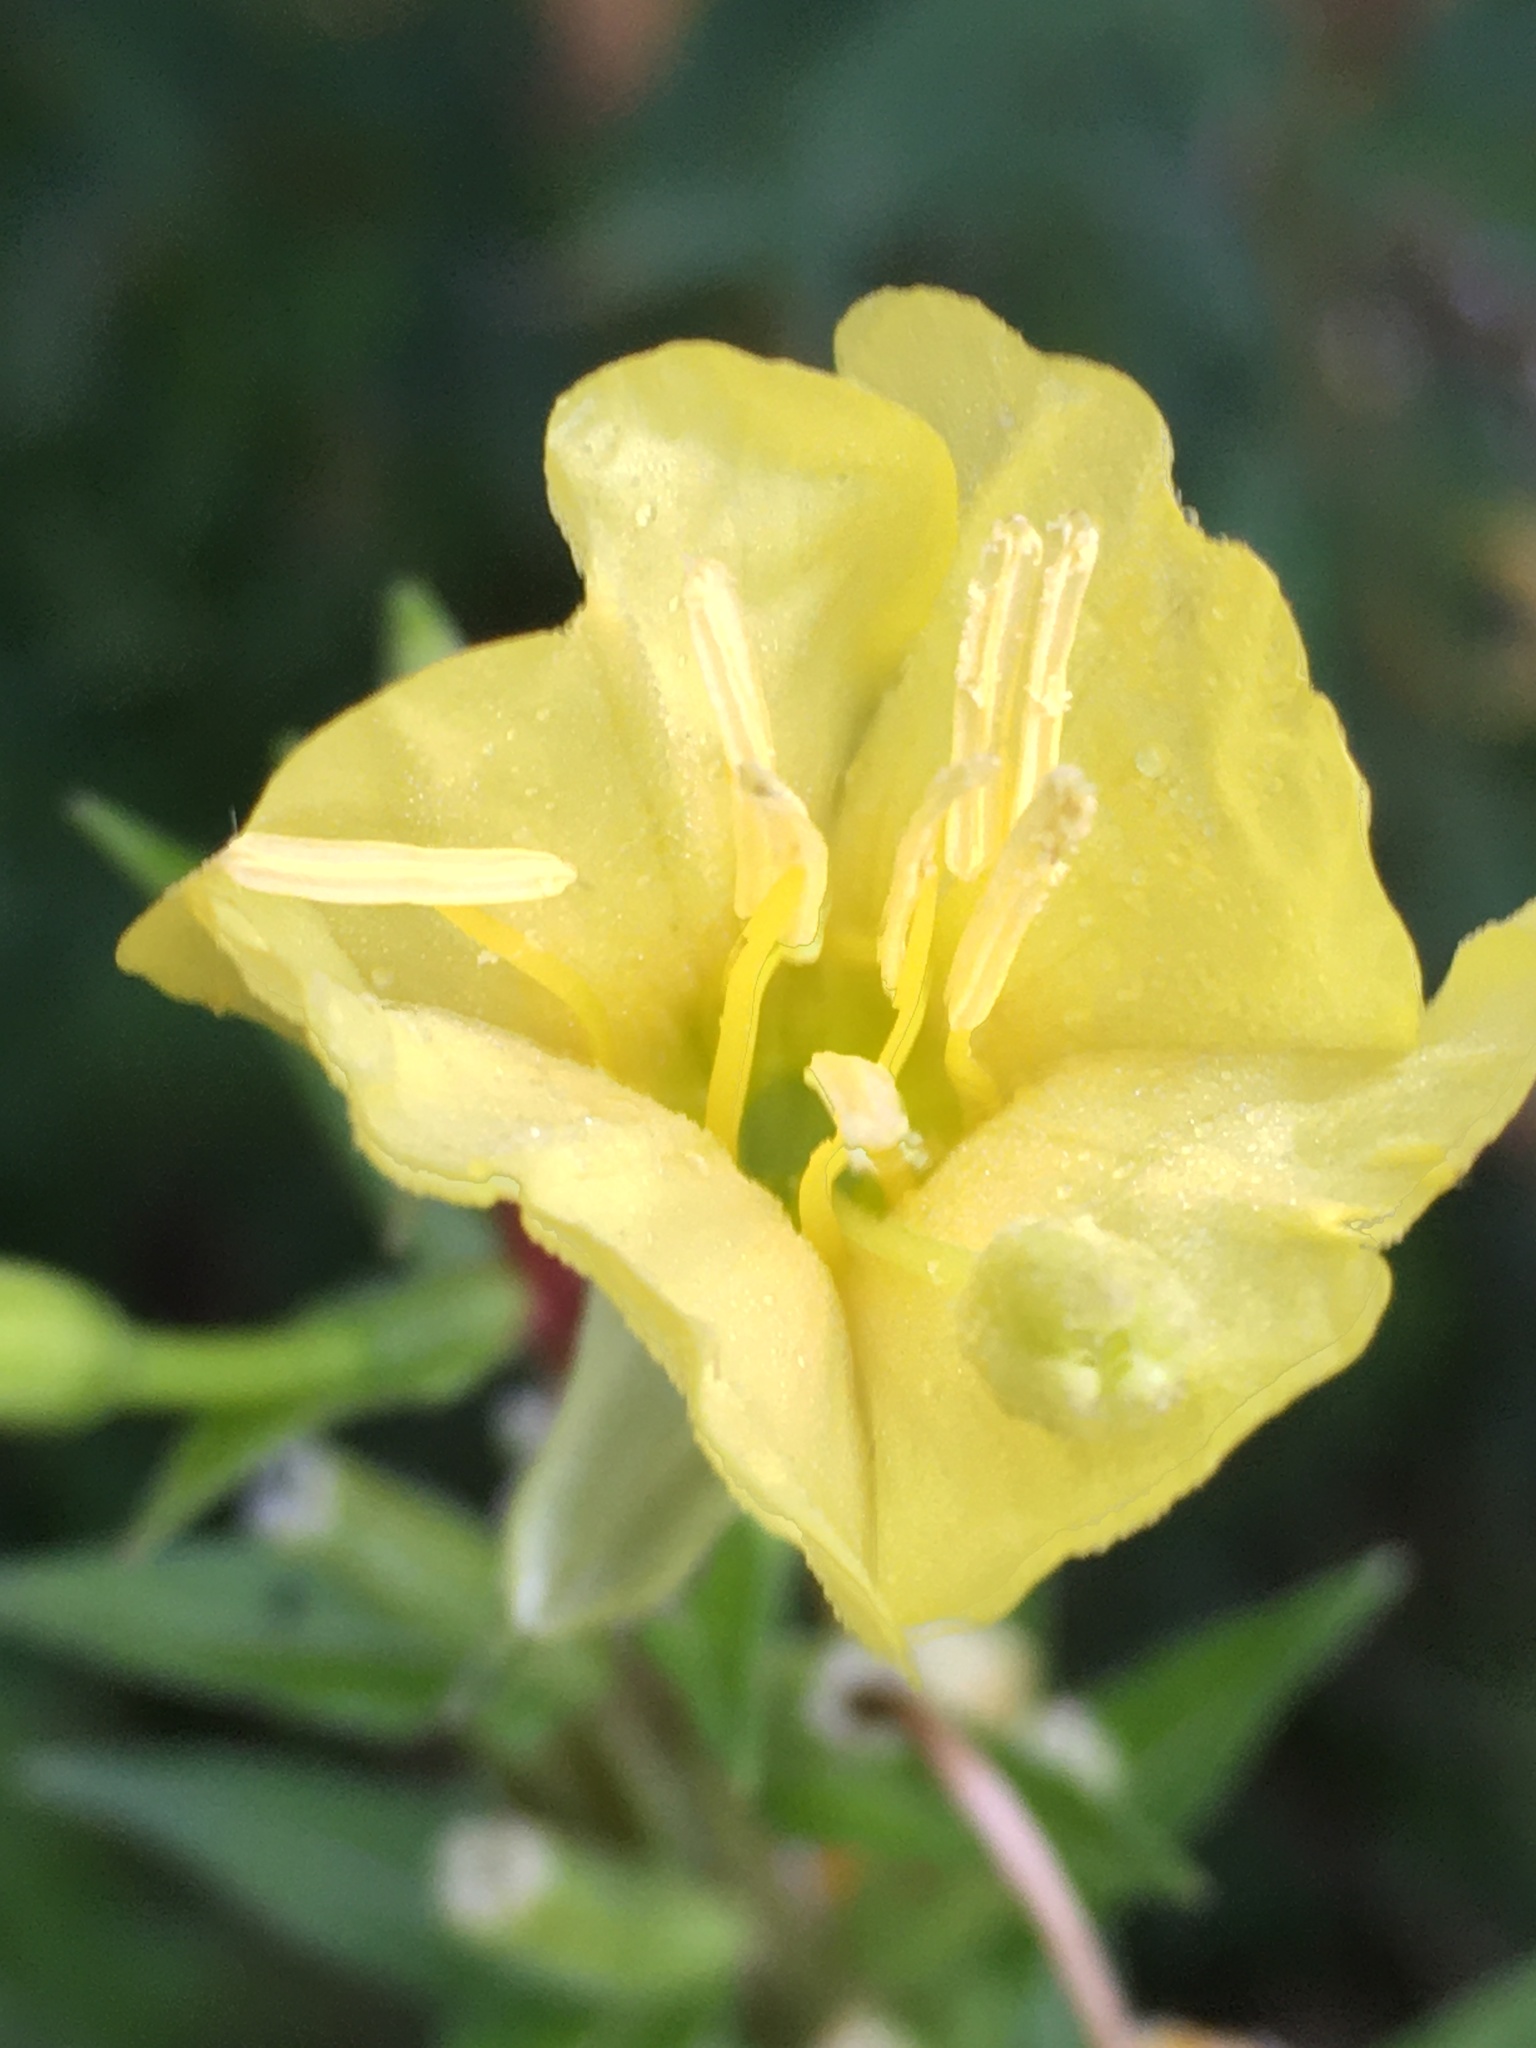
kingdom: Plantae
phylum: Tracheophyta
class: Magnoliopsida
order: Myrtales
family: Onagraceae
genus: Oenothera
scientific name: Oenothera biennis
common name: Common evening-primrose
